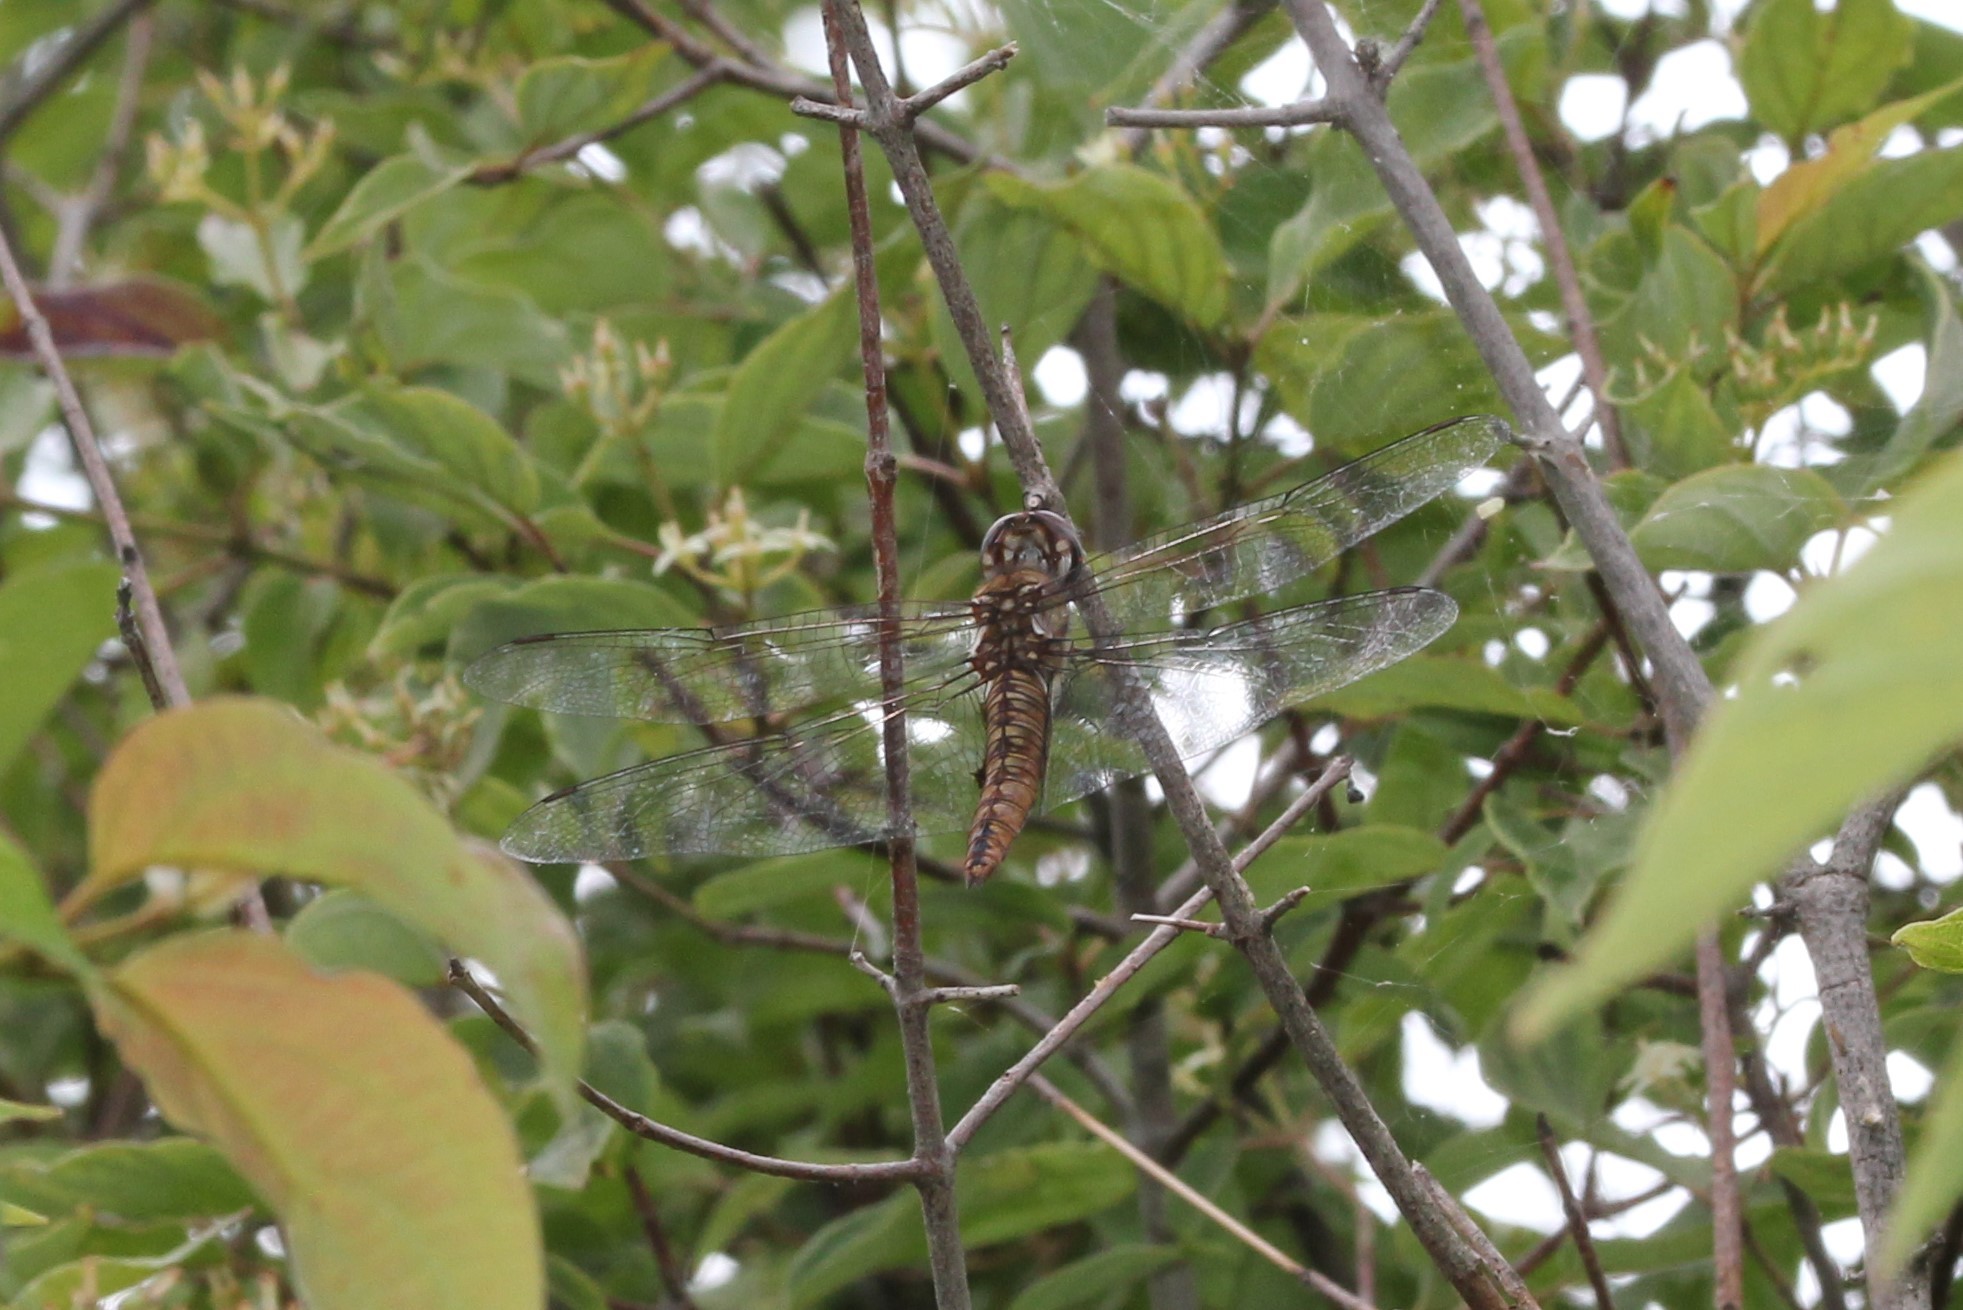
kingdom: Animalia
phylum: Arthropoda
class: Insecta
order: Odonata
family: Libellulidae
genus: Pantala
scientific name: Pantala hymenaea
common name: Spot-winged glider
